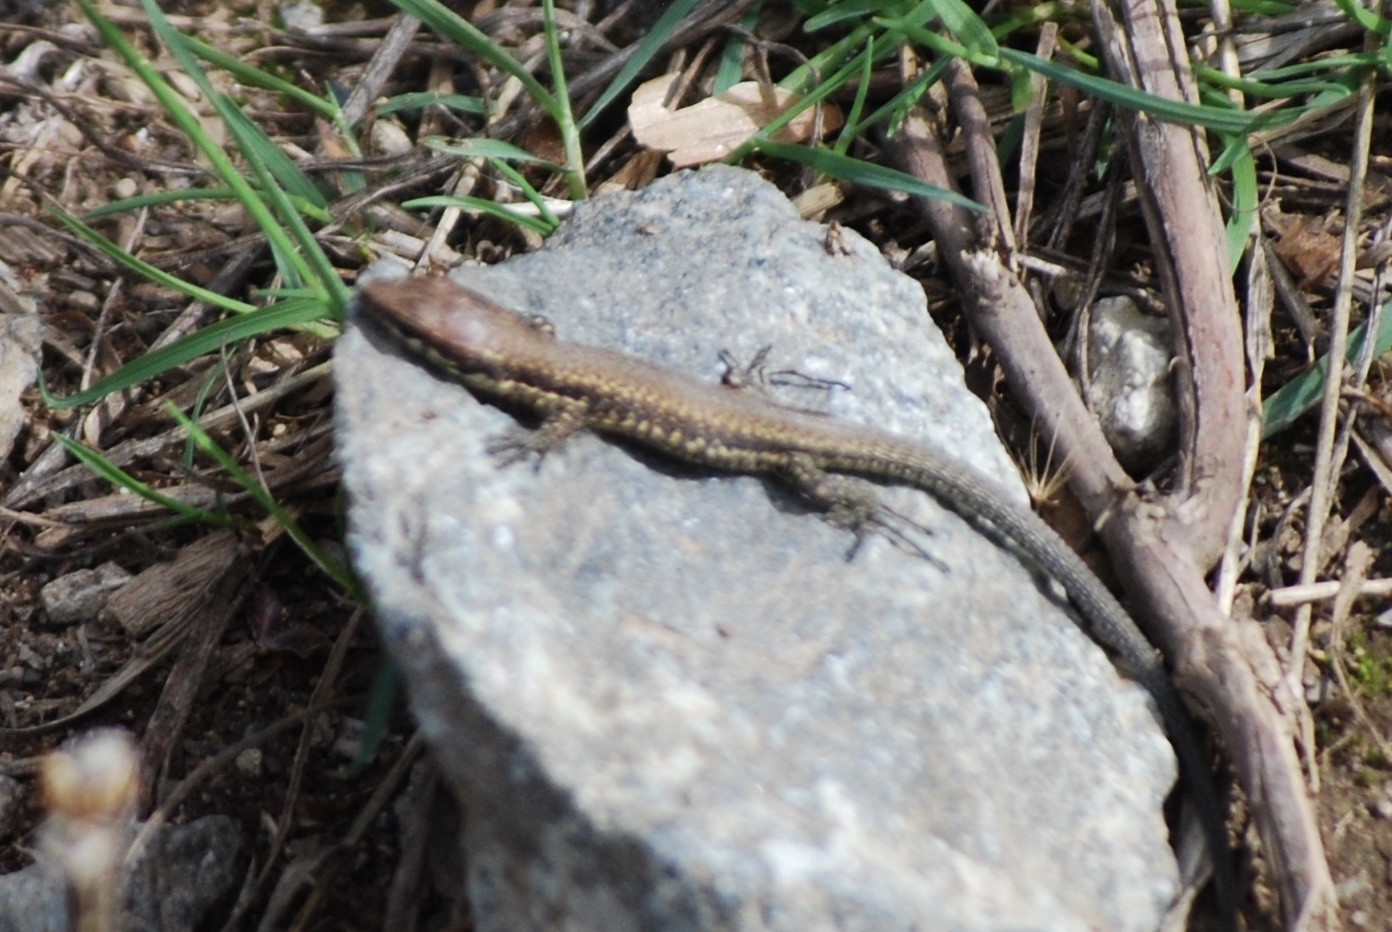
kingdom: Animalia
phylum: Chordata
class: Squamata
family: Lacertidae
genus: Podarcis
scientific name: Podarcis muralis
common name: Common wall lizard
